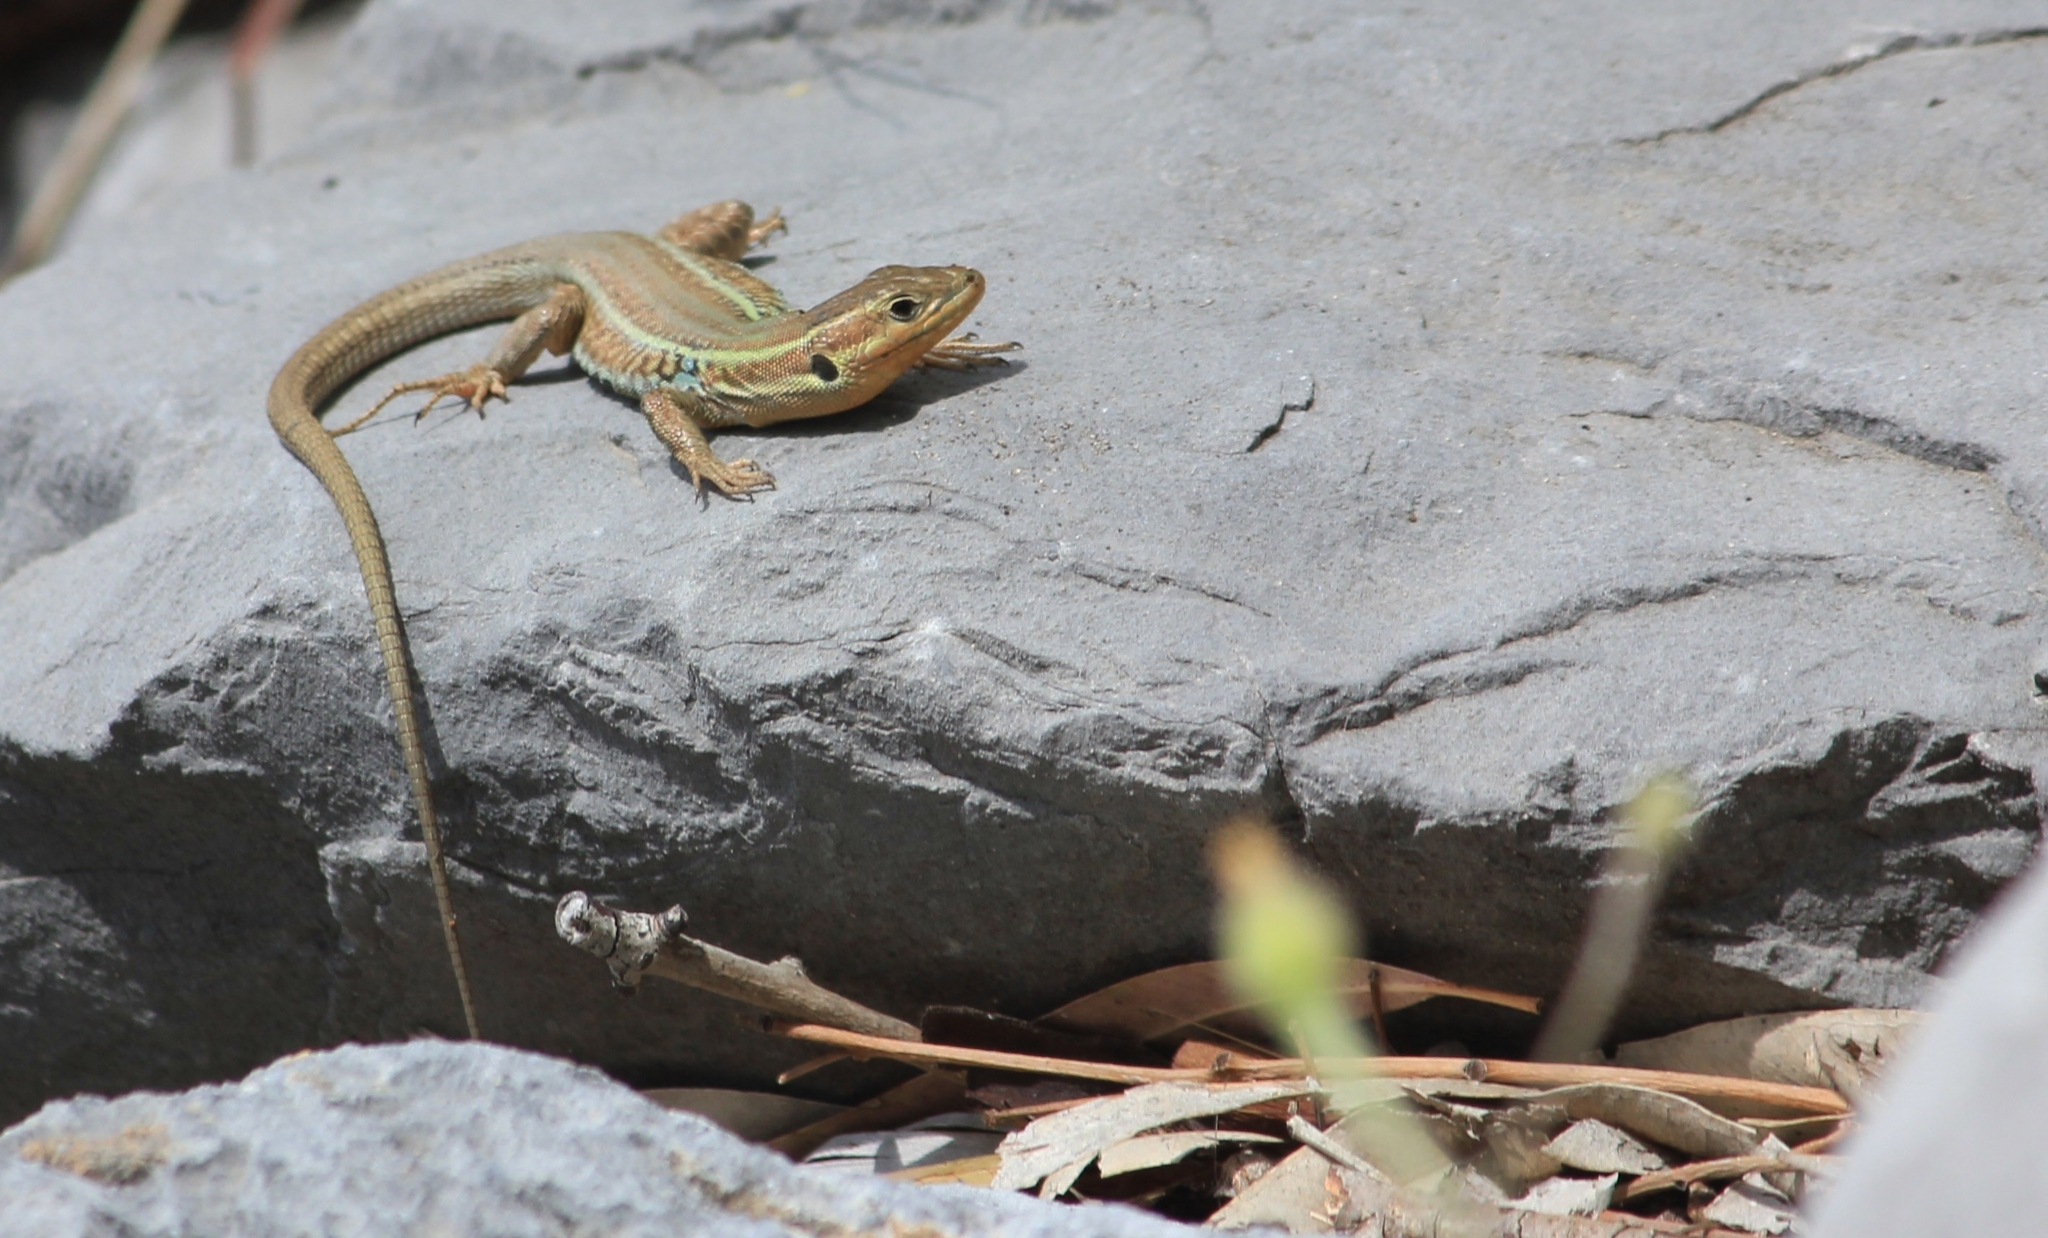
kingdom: Animalia
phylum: Chordata
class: Squamata
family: Lacertidae
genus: Podarcis
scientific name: Podarcis peloponnesiacus
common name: Peloponnese wall lizard
